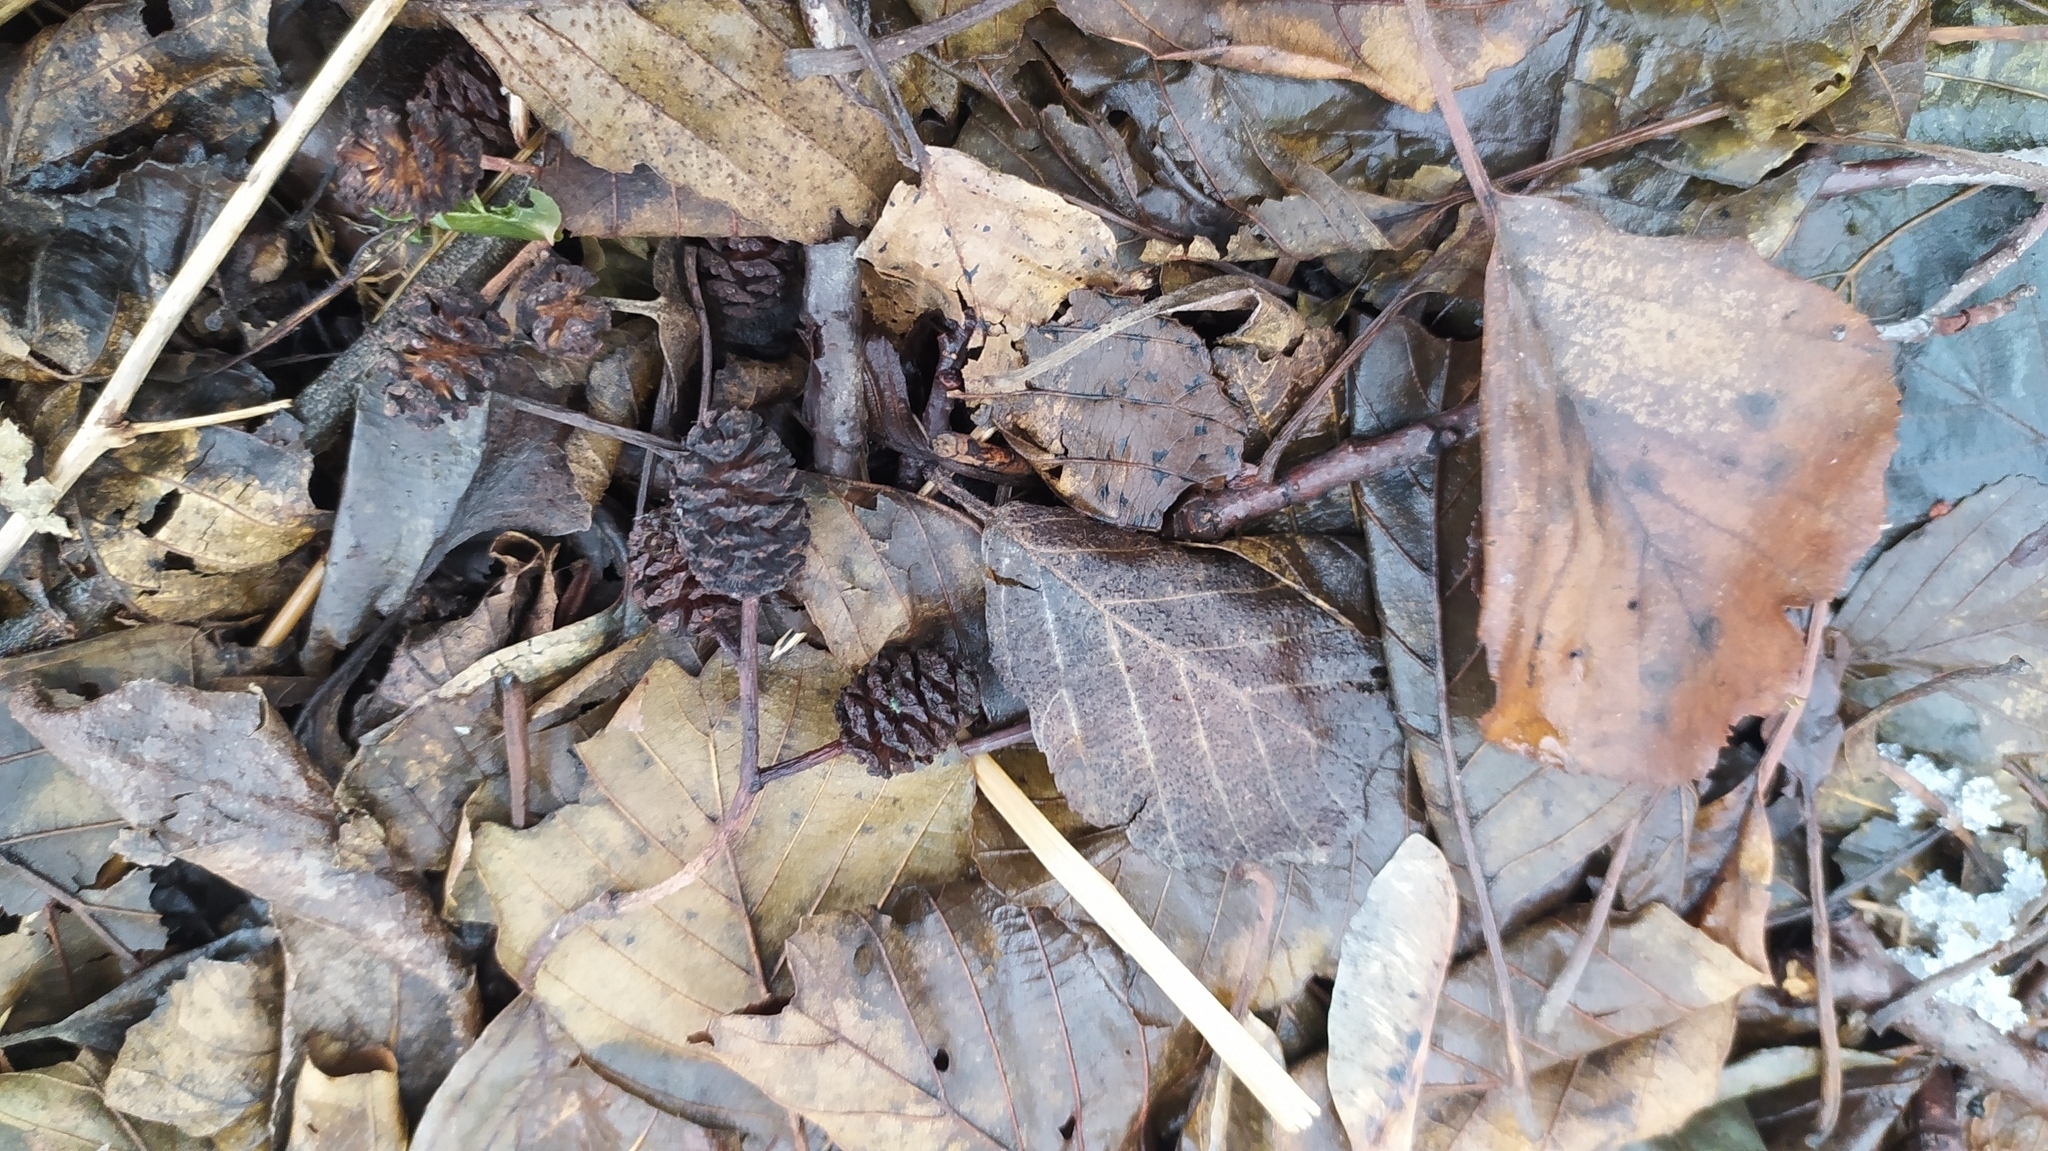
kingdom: Plantae
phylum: Tracheophyta
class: Magnoliopsida
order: Fagales
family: Betulaceae
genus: Alnus
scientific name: Alnus glutinosa
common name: Black alder
